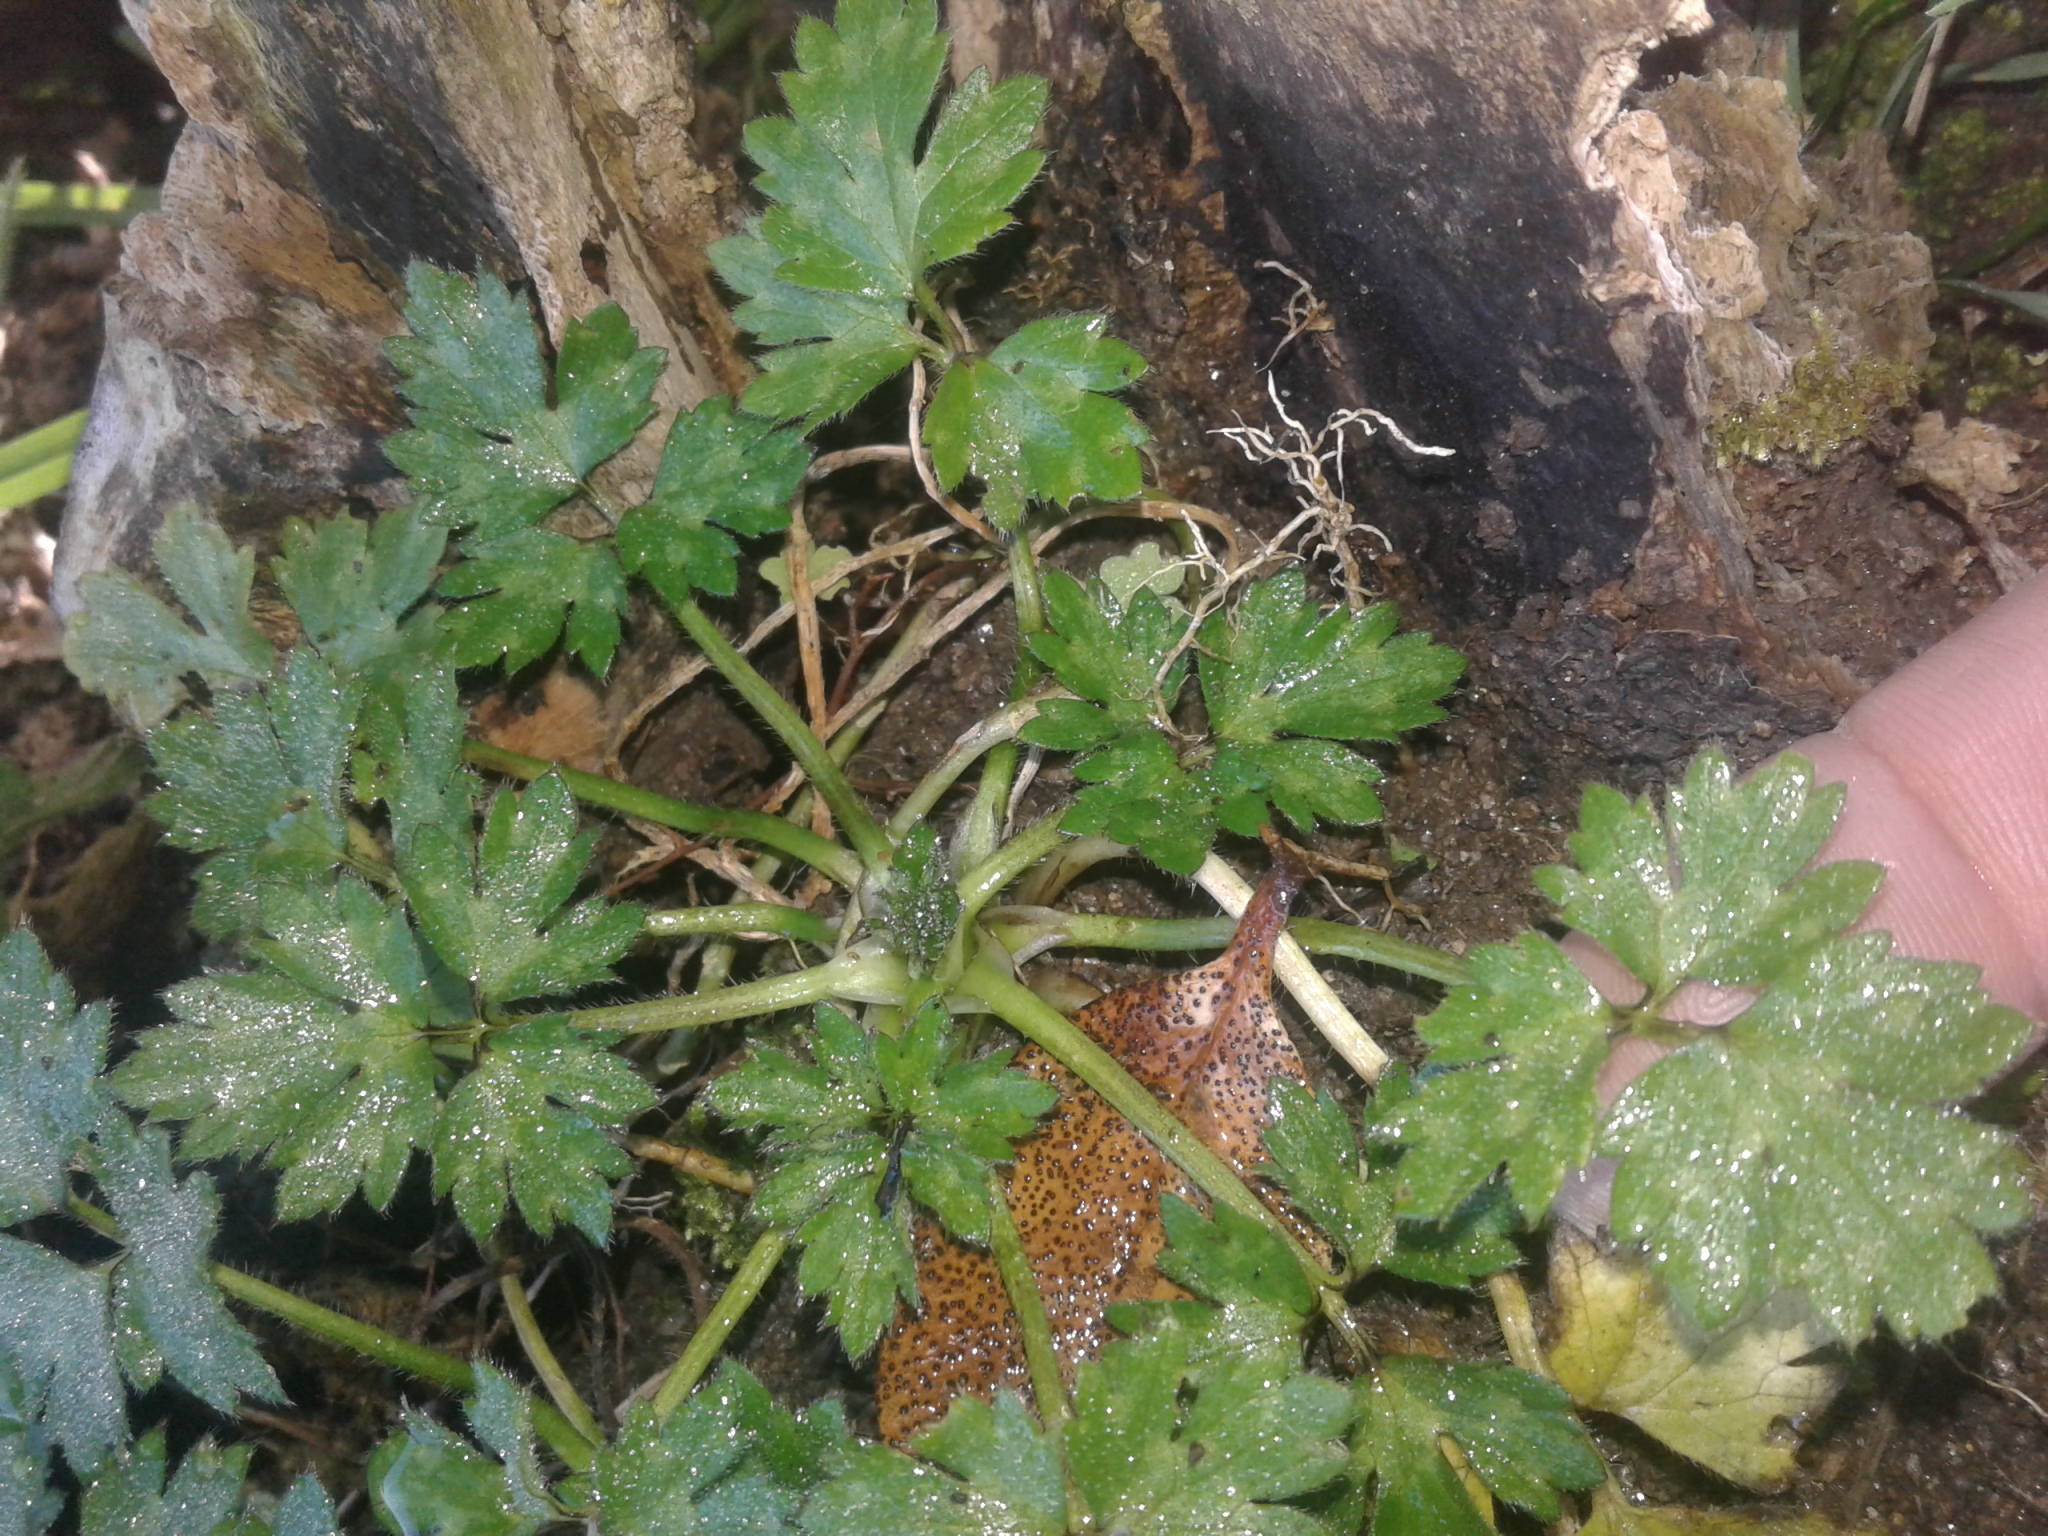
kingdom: Plantae
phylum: Tracheophyta
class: Magnoliopsida
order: Ranunculales
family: Ranunculaceae
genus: Ranunculus
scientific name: Ranunculus repens
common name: Creeping buttercup
